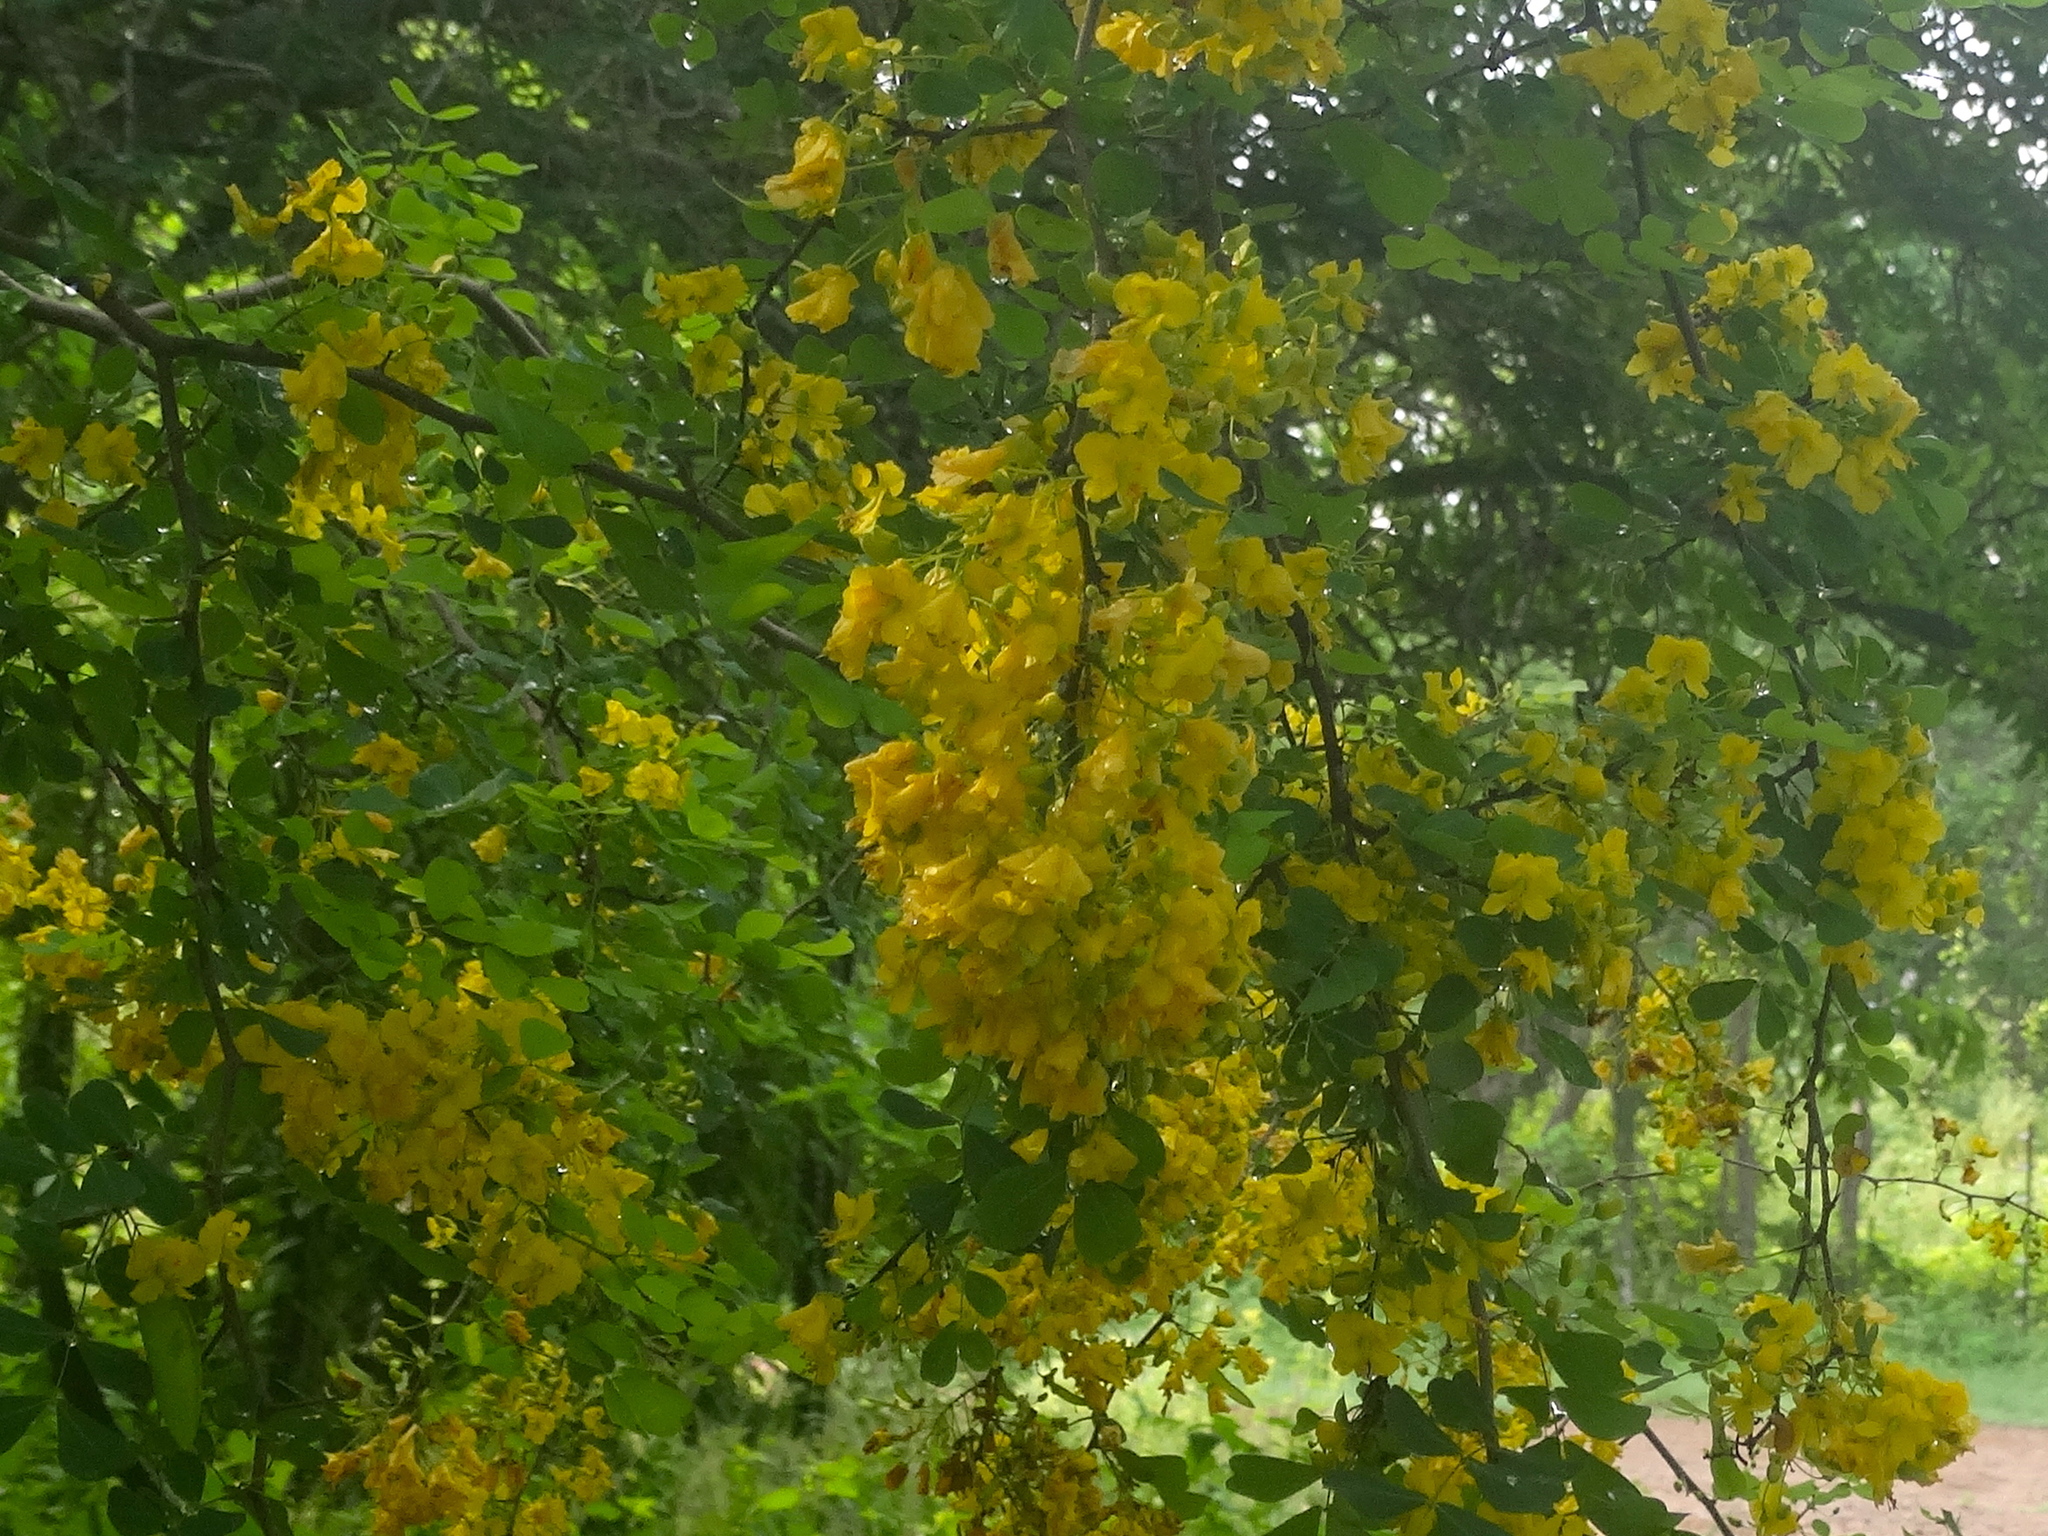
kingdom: Plantae
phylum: Tracheophyta
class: Magnoliopsida
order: Fabales
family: Fabaceae
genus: Haematoxylum
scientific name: Haematoxylum brasiletto
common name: Peachwood
